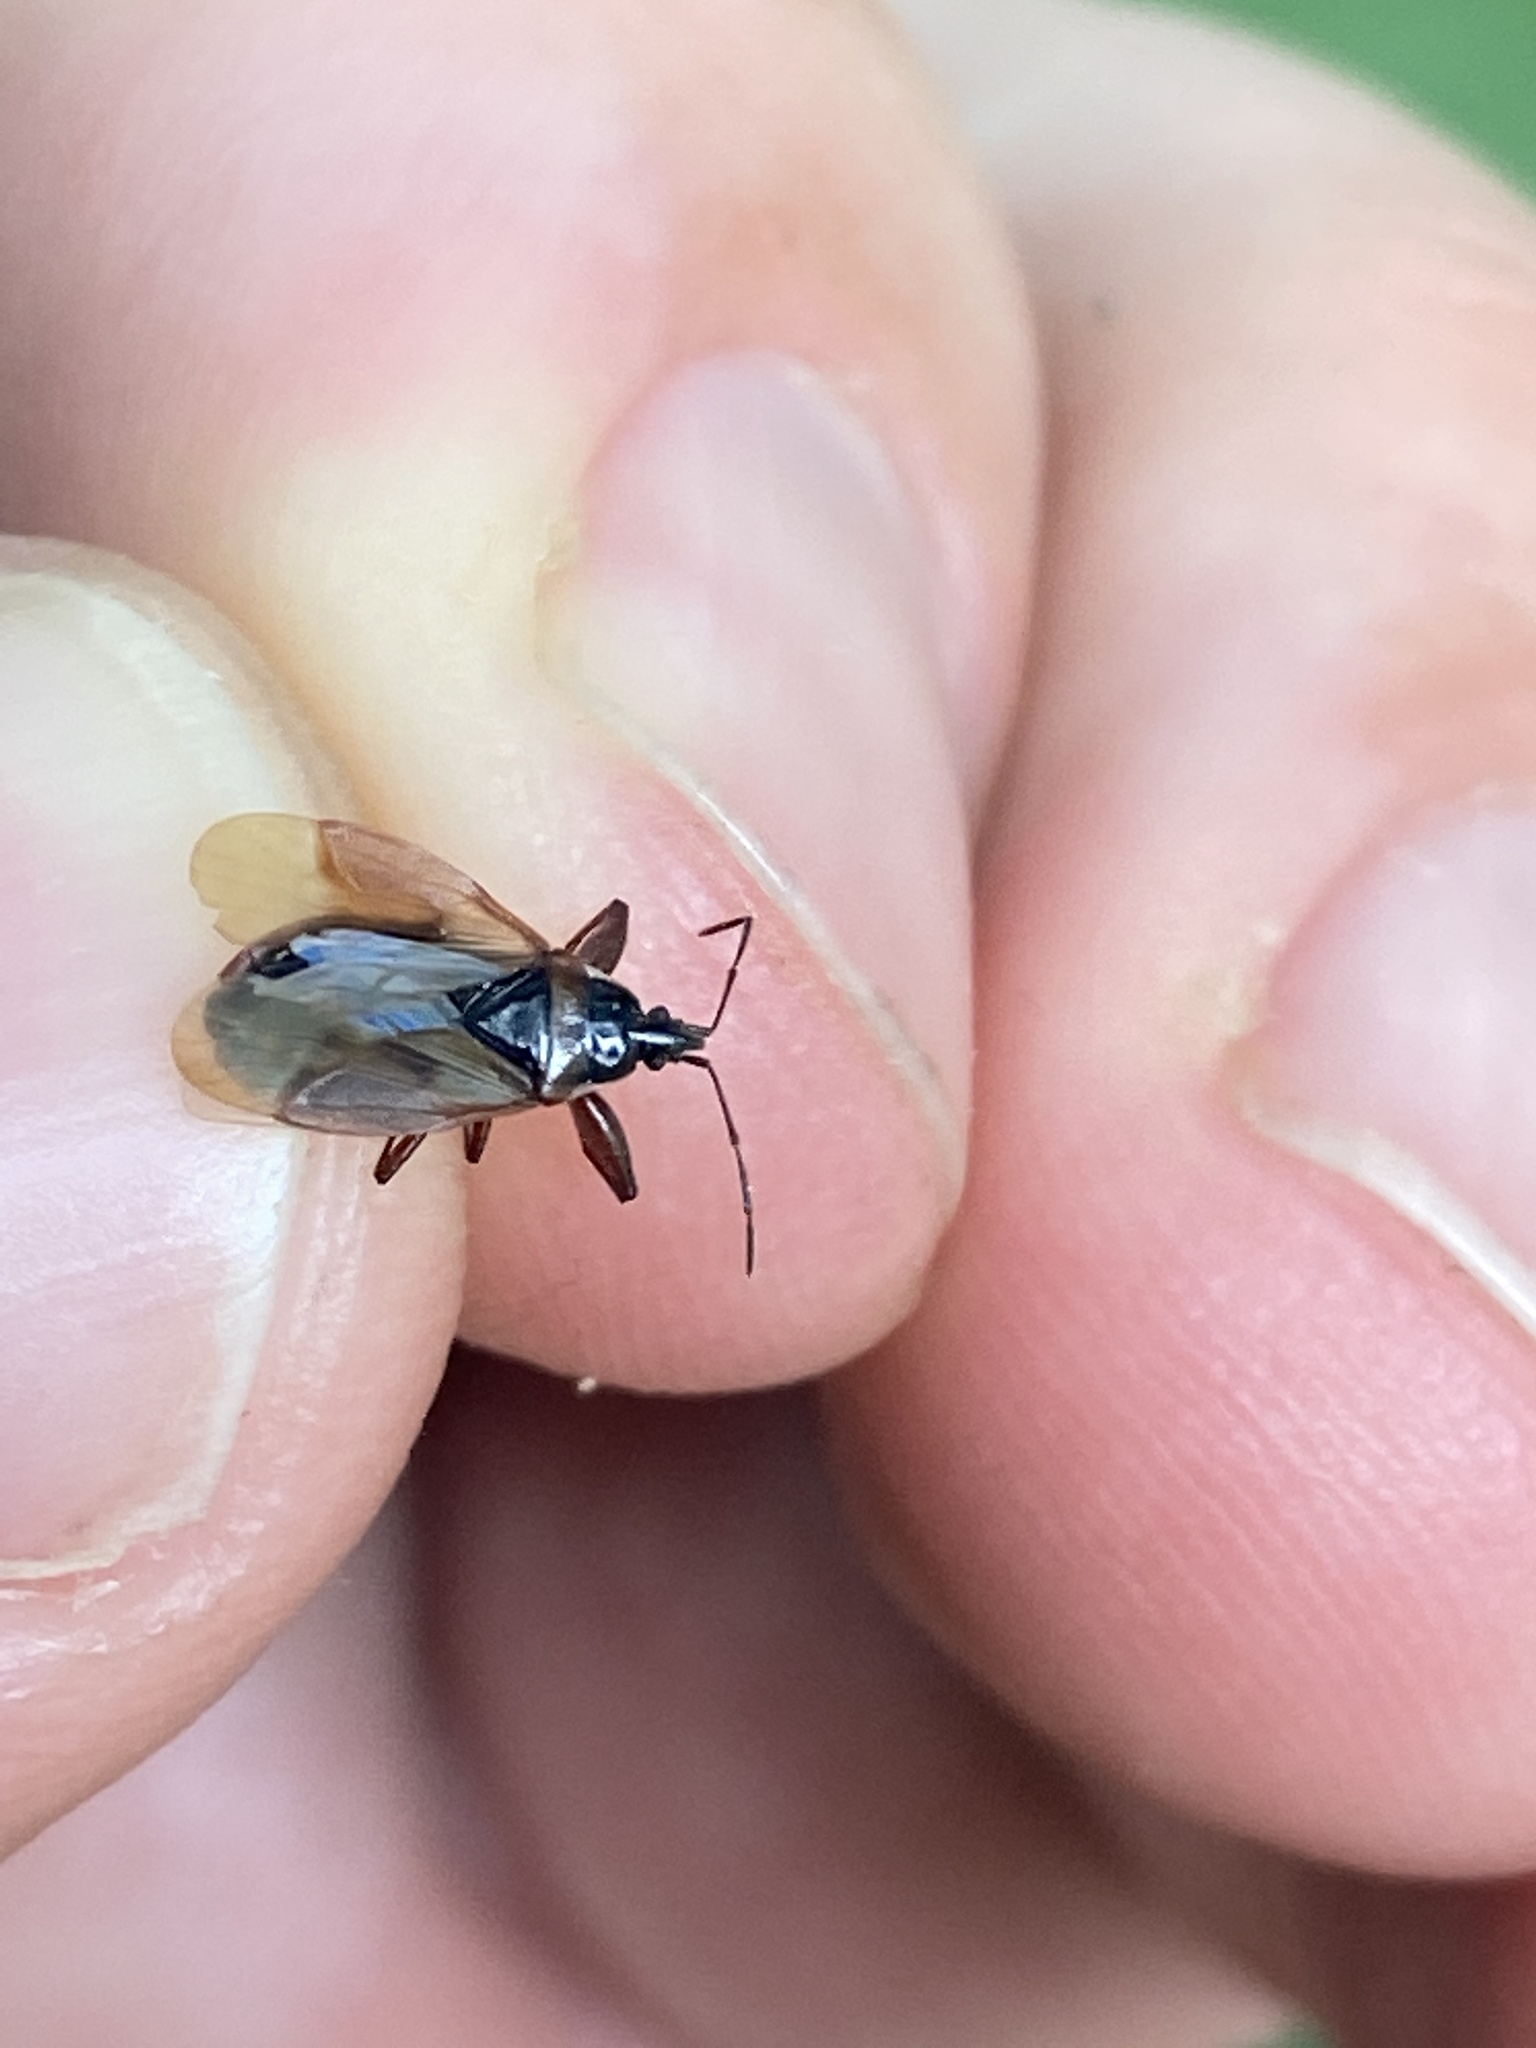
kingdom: Animalia
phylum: Arthropoda
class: Insecta
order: Hemiptera
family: Rhyparochromidae
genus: Gastrodes
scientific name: Gastrodes abietum
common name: Spruce cone bug
